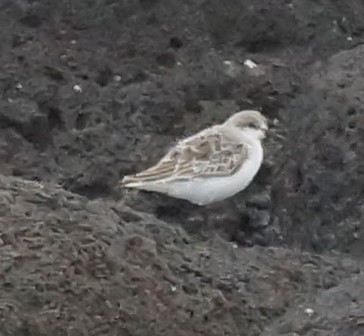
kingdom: Animalia
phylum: Chordata
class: Aves
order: Charadriiformes
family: Scolopacidae
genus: Calidris
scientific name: Calidris ruficollis
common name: Red-necked stint
